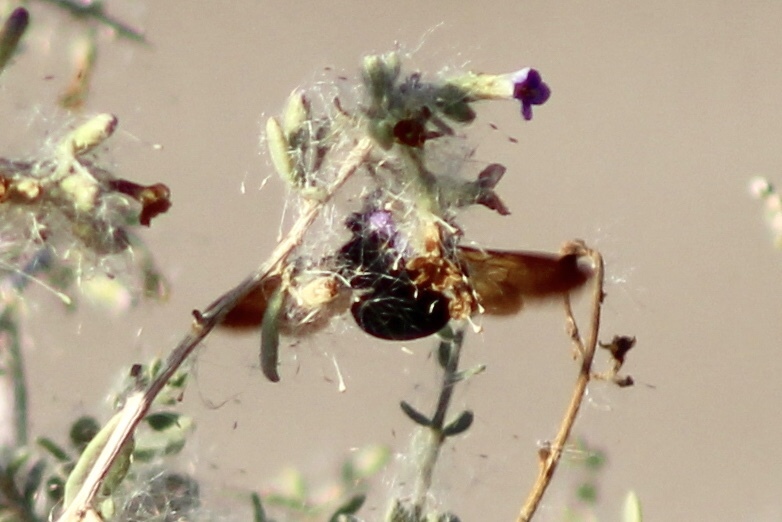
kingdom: Animalia
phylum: Arthropoda
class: Insecta
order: Hymenoptera
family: Apidae
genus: Xylocopa
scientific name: Xylocopa sonorina
